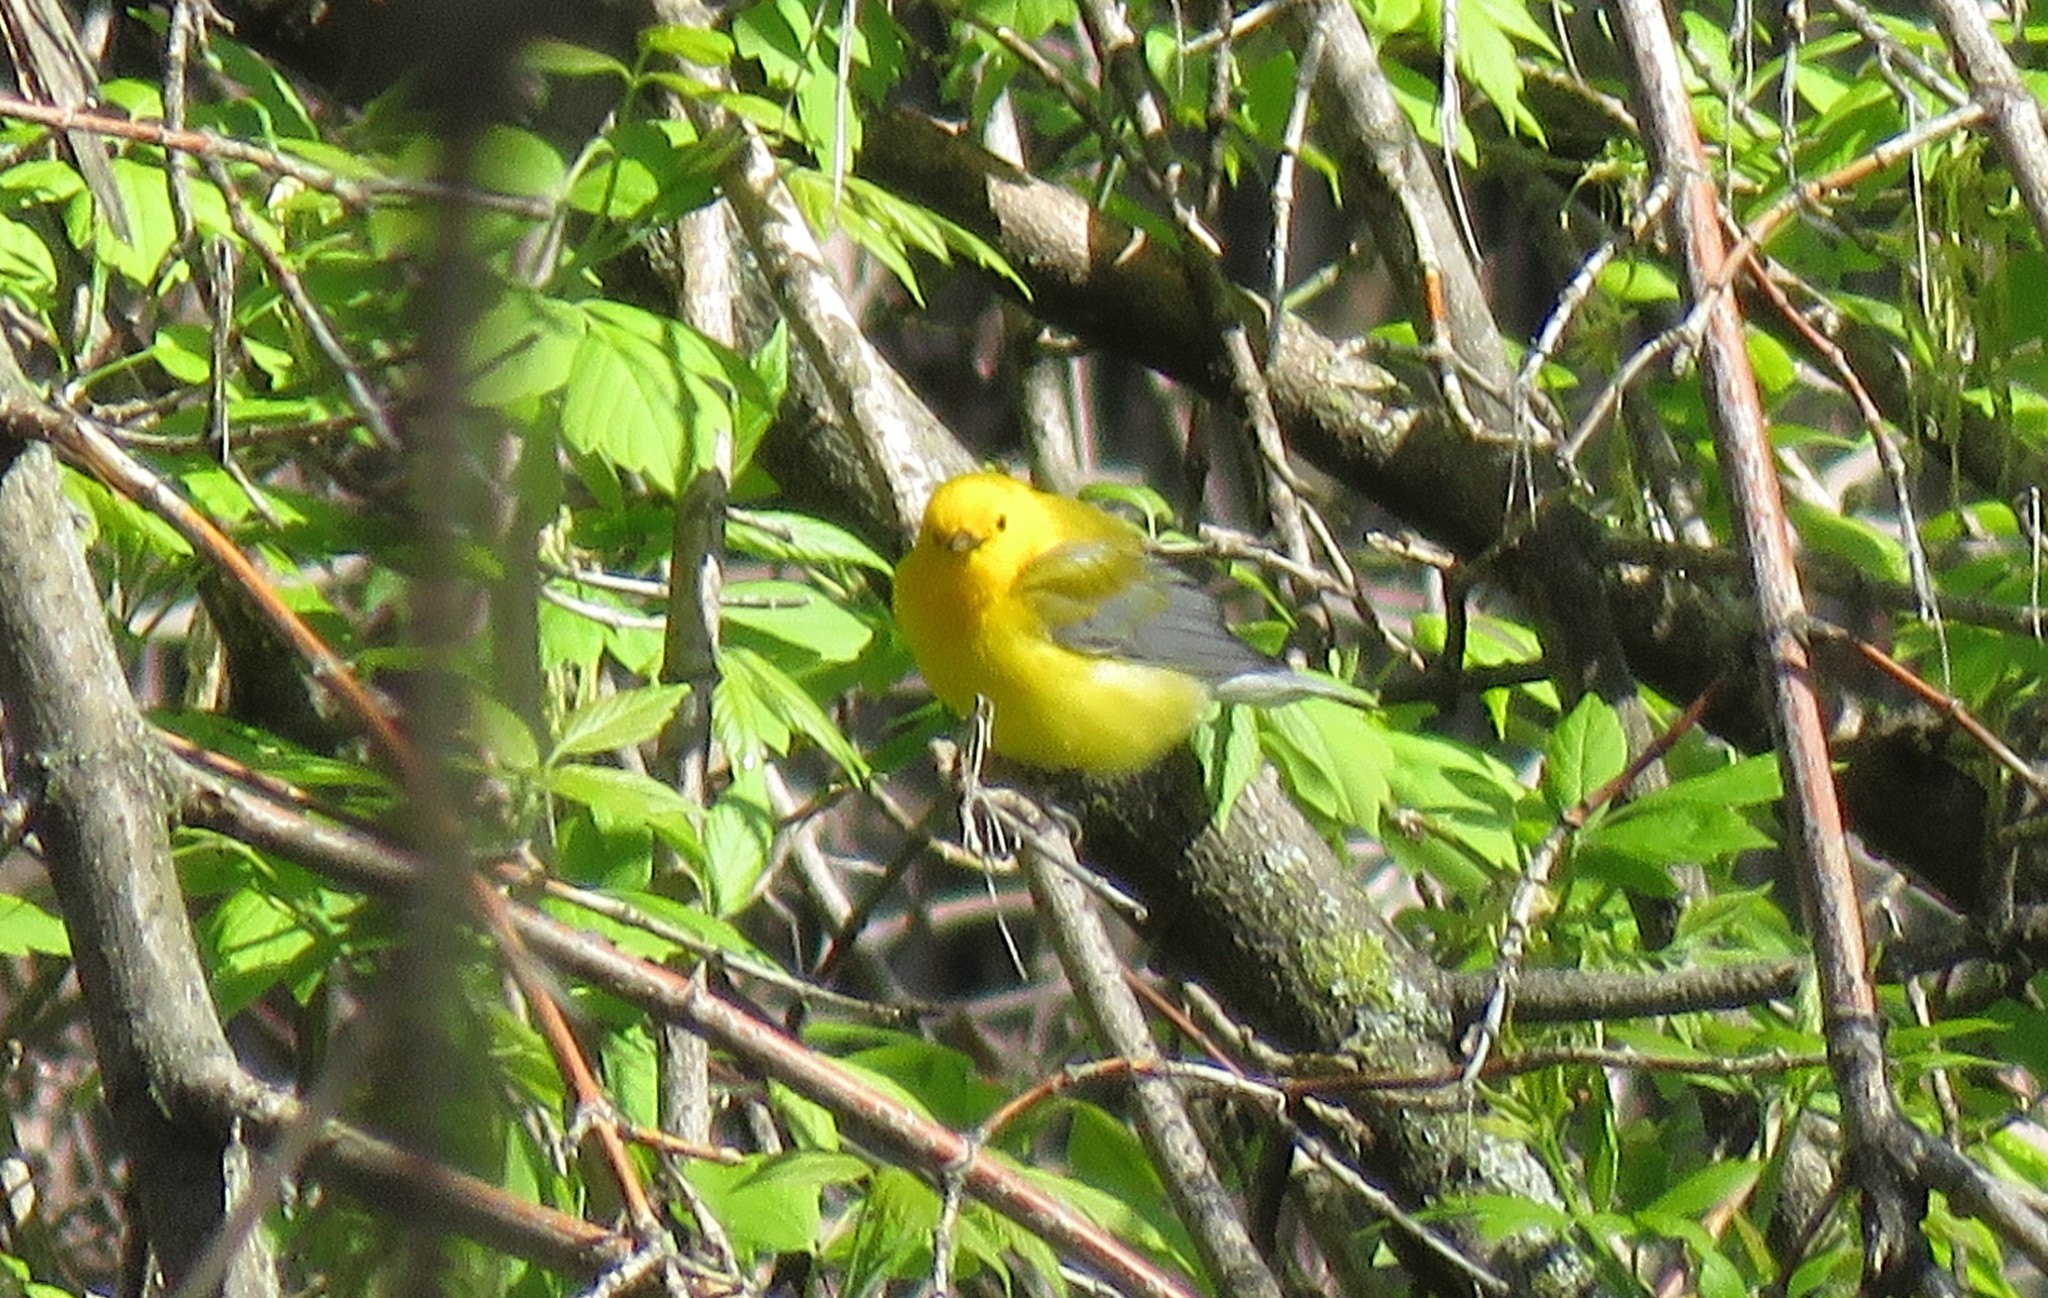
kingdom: Animalia
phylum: Chordata
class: Aves
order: Passeriformes
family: Parulidae
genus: Protonotaria
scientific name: Protonotaria citrea
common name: Prothonotary warbler
